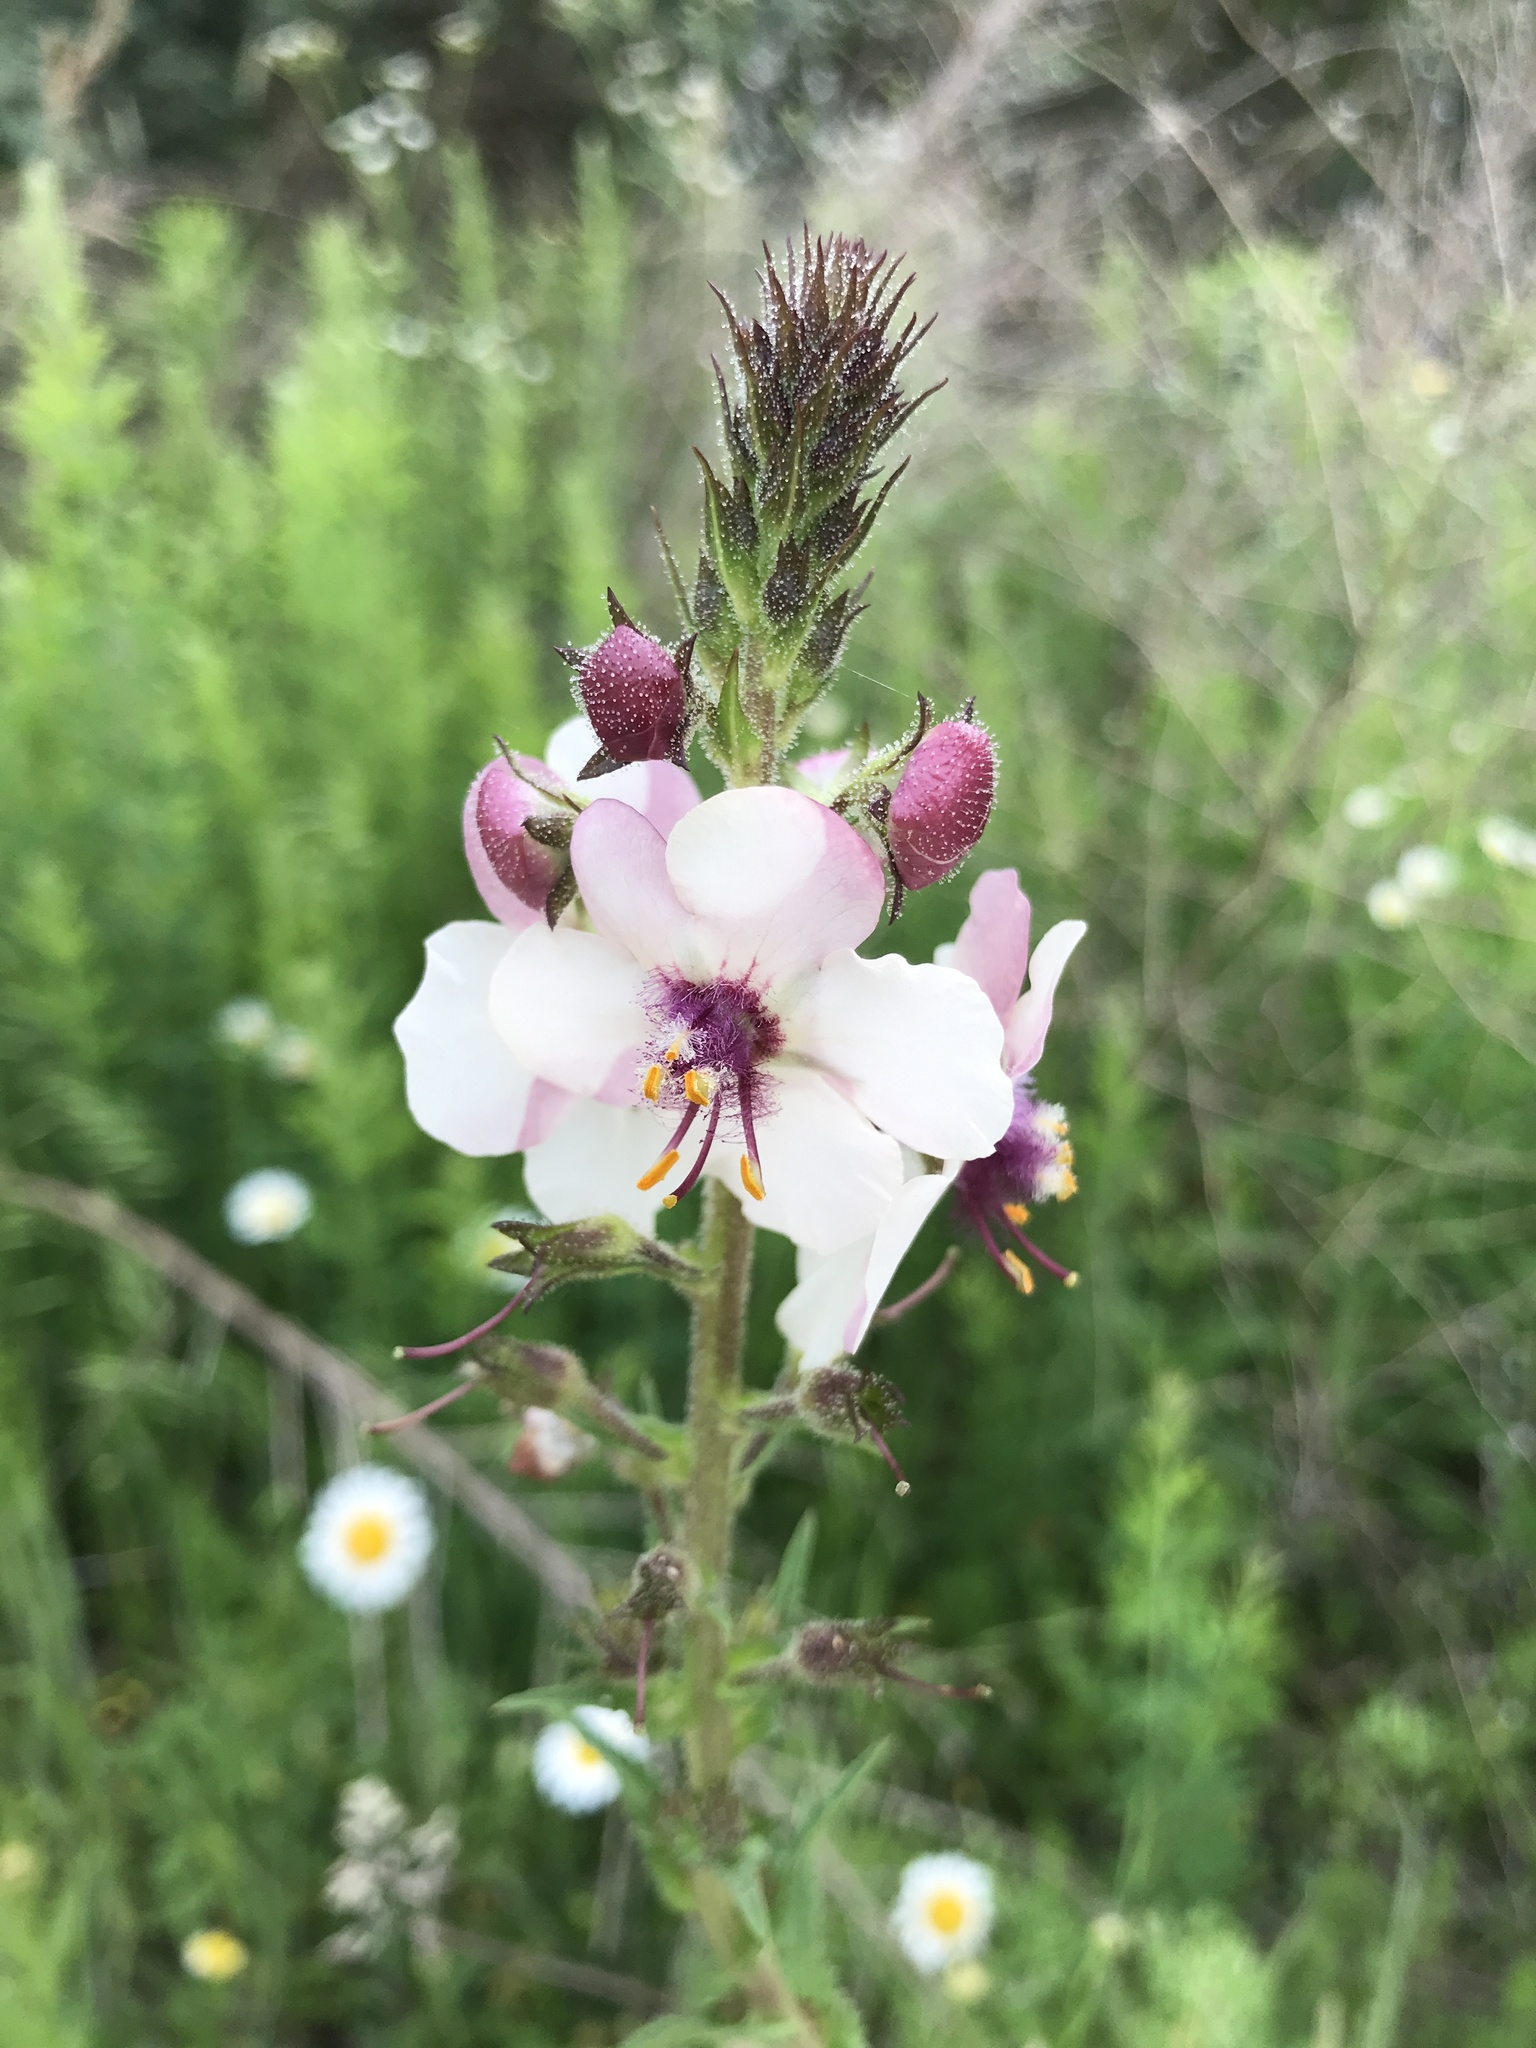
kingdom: Plantae
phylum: Tracheophyta
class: Magnoliopsida
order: Lamiales
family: Scrophulariaceae
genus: Verbascum
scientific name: Verbascum blattaria
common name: Moth mullein
